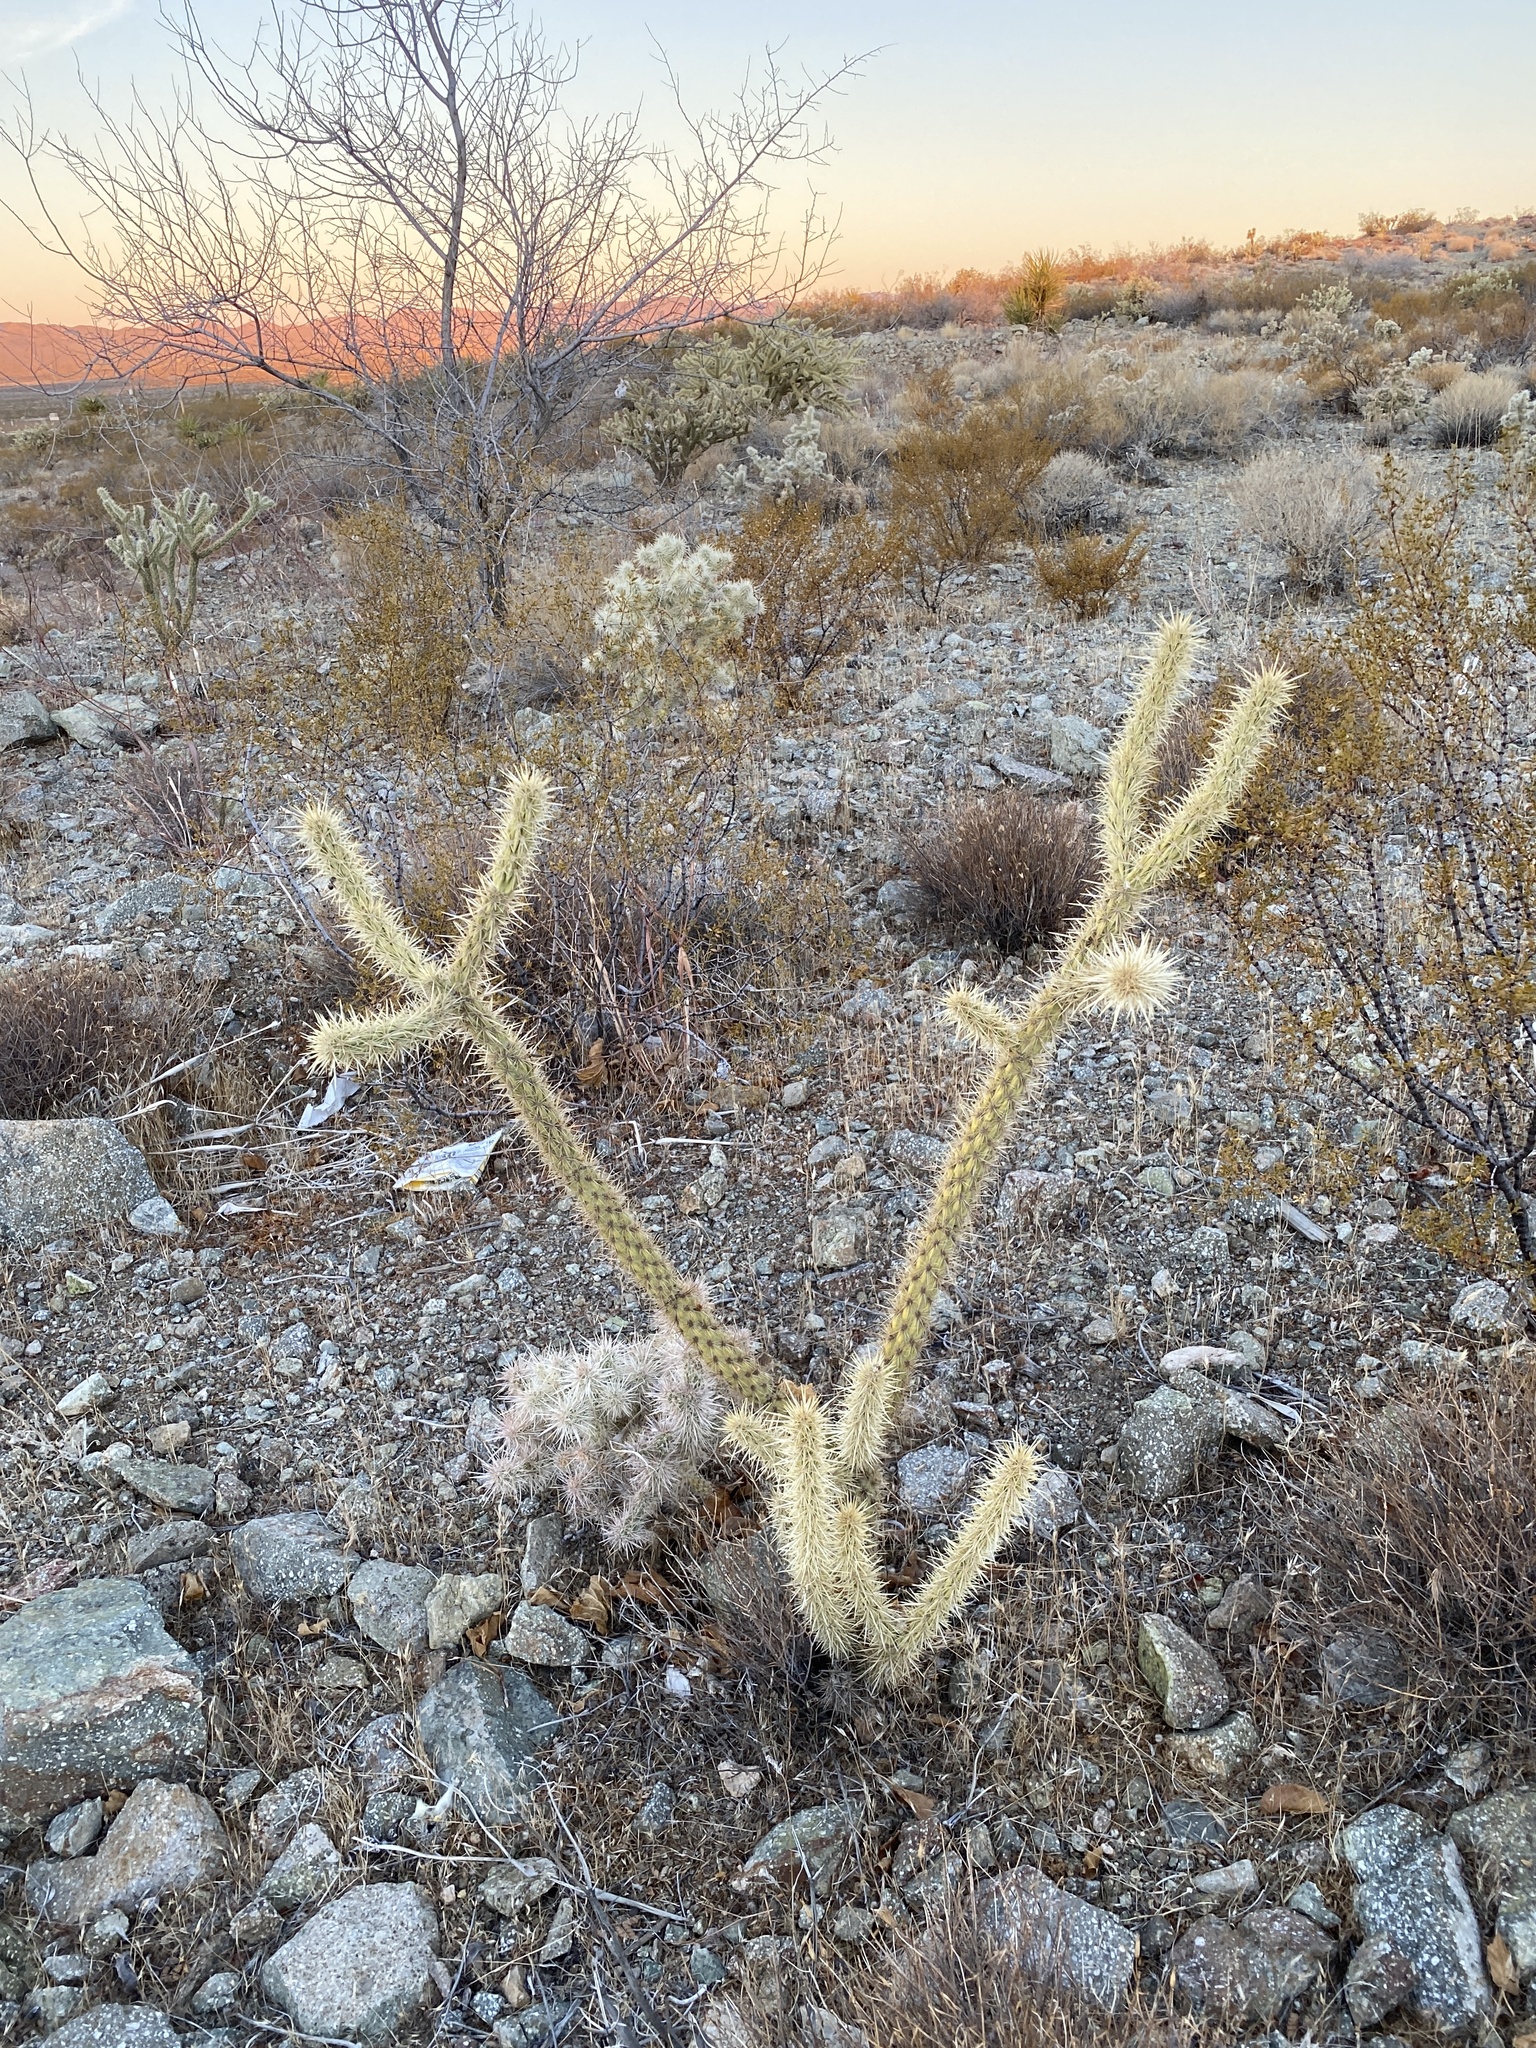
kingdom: Plantae
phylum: Tracheophyta
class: Magnoliopsida
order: Caryophyllales
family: Cactaceae
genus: Cylindropuntia
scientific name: Cylindropuntia acanthocarpa
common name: Buckhorn cholla
